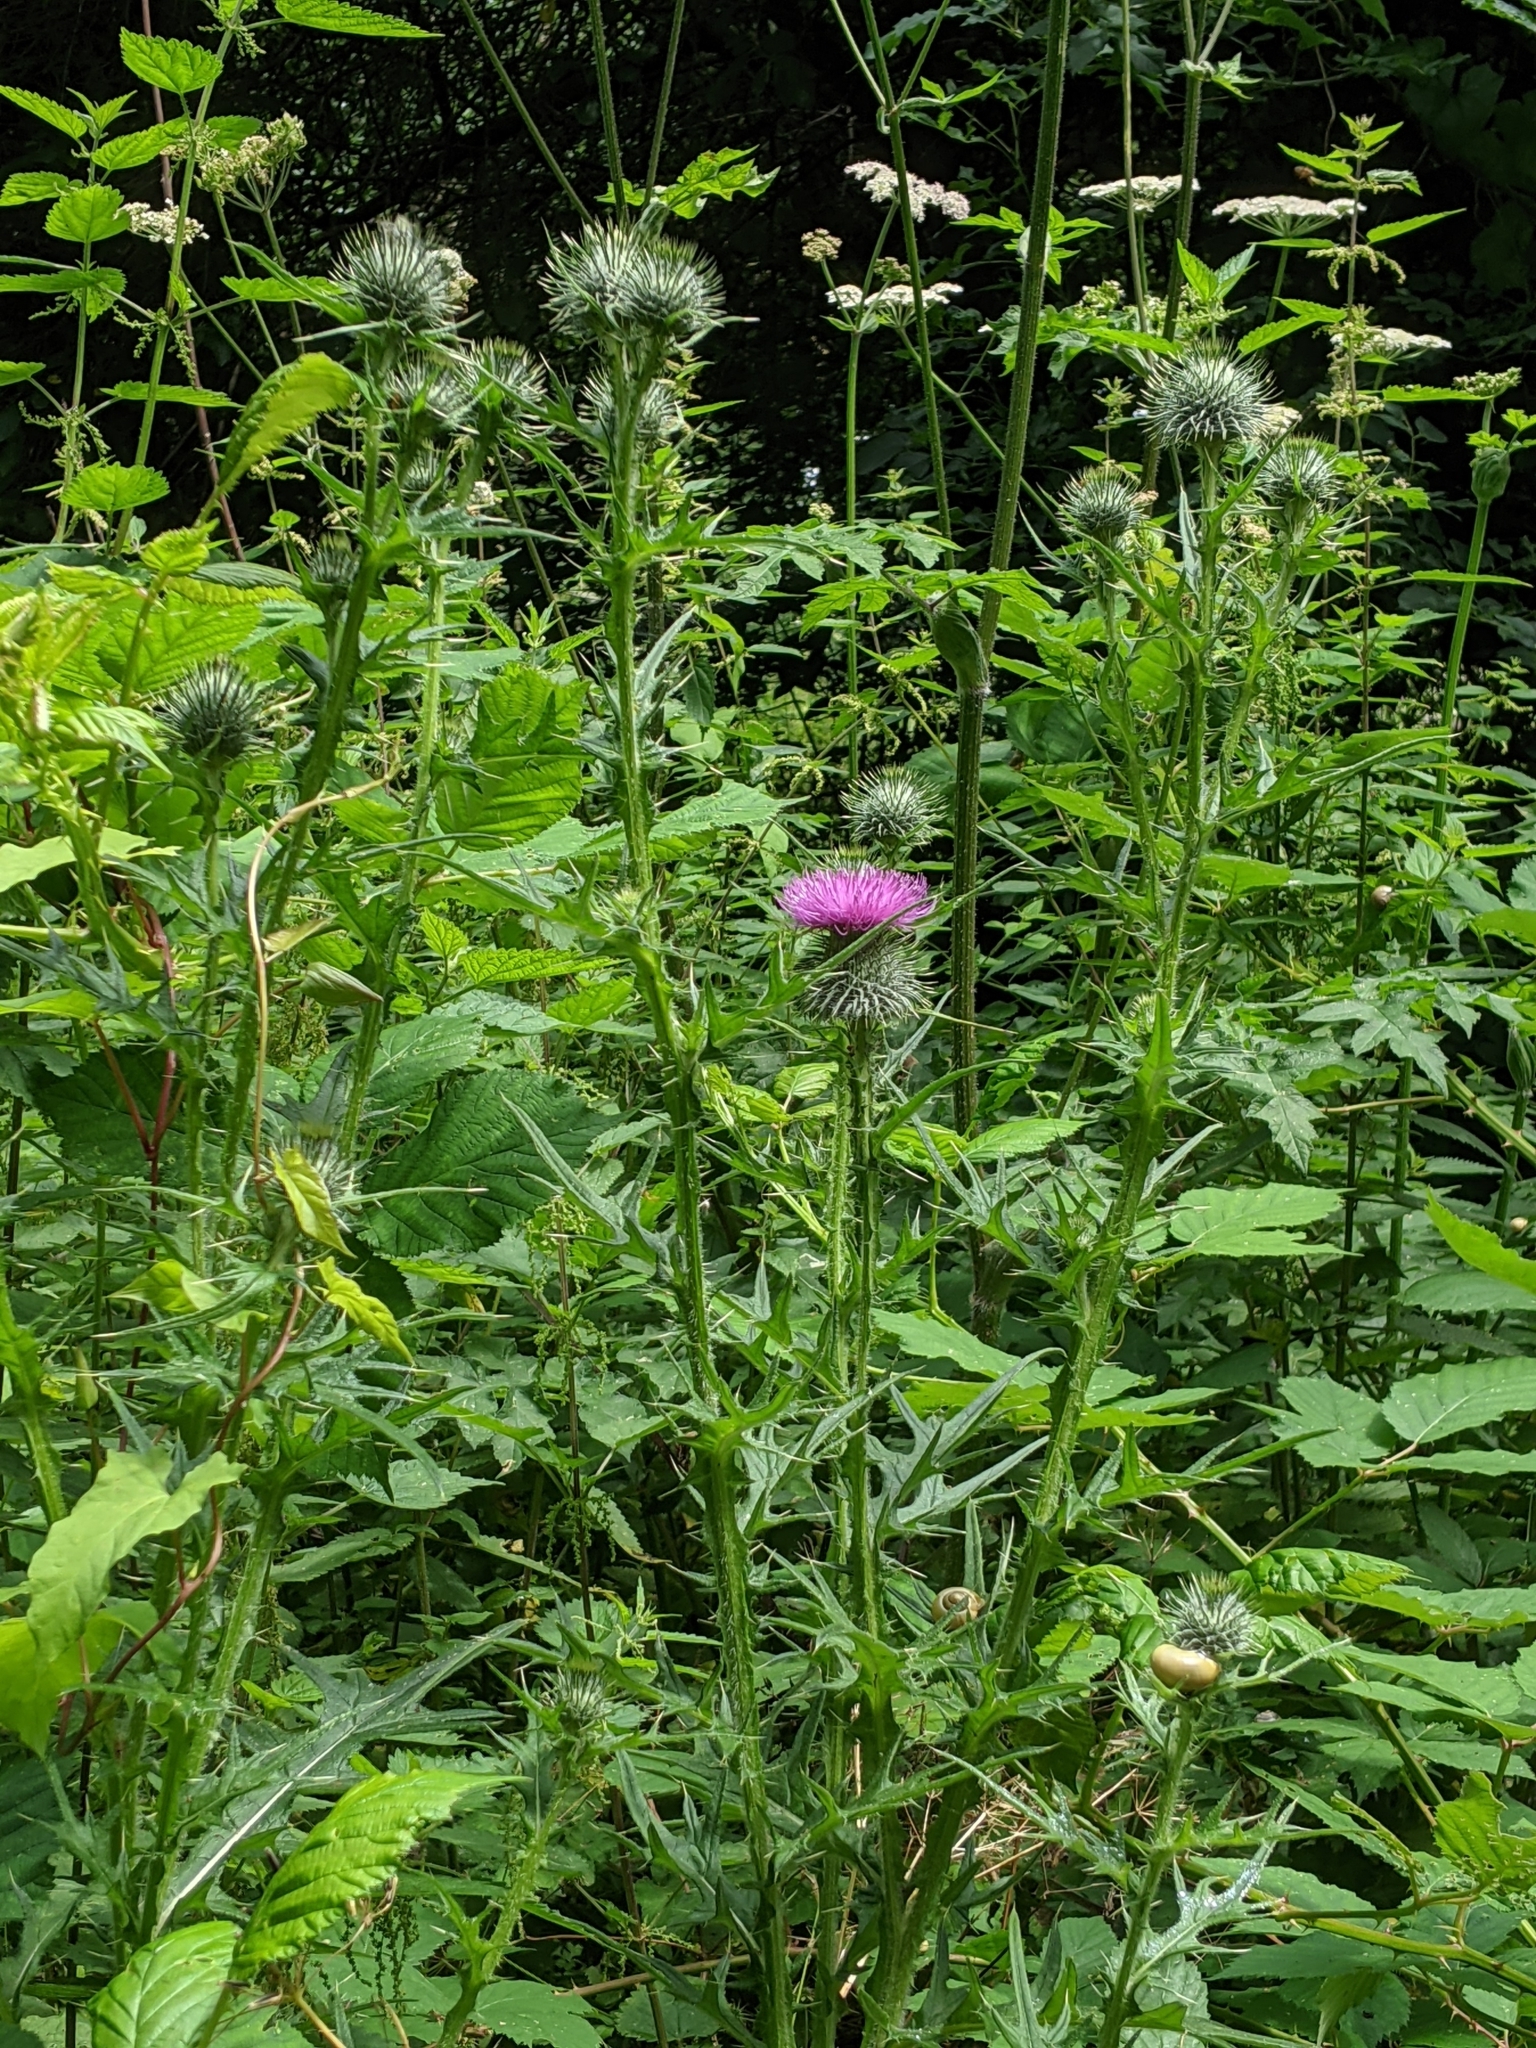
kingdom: Plantae
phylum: Tracheophyta
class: Magnoliopsida
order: Asterales
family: Asteraceae
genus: Cirsium
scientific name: Cirsium vulgare
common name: Bull thistle
